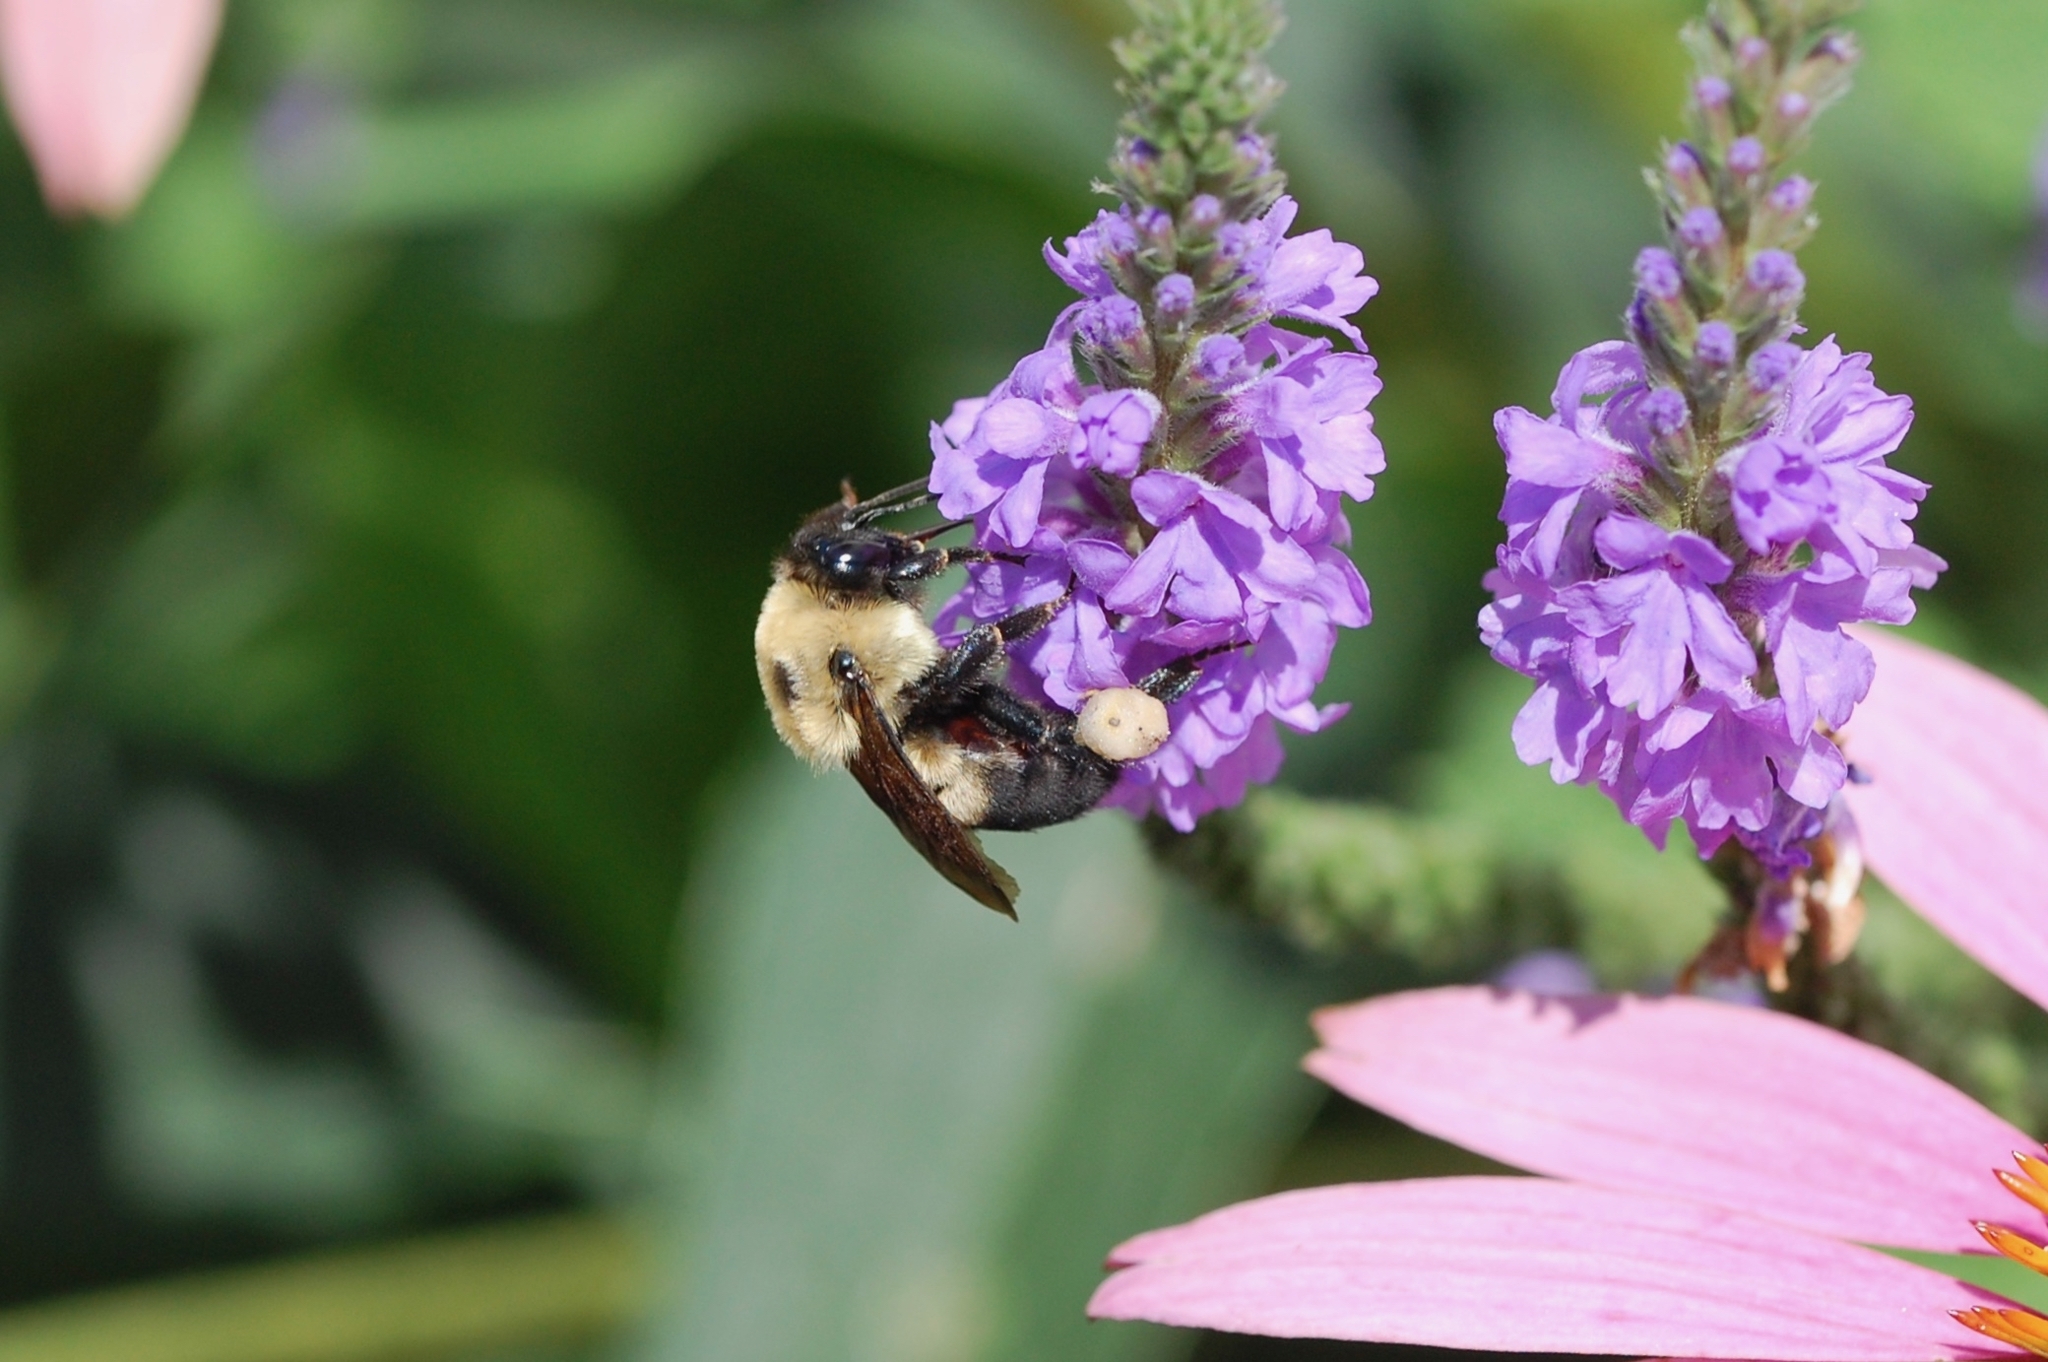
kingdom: Animalia
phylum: Arthropoda
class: Insecta
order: Hymenoptera
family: Apidae
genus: Bombus
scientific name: Bombus griseocollis
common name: Brown-belted bumble bee
